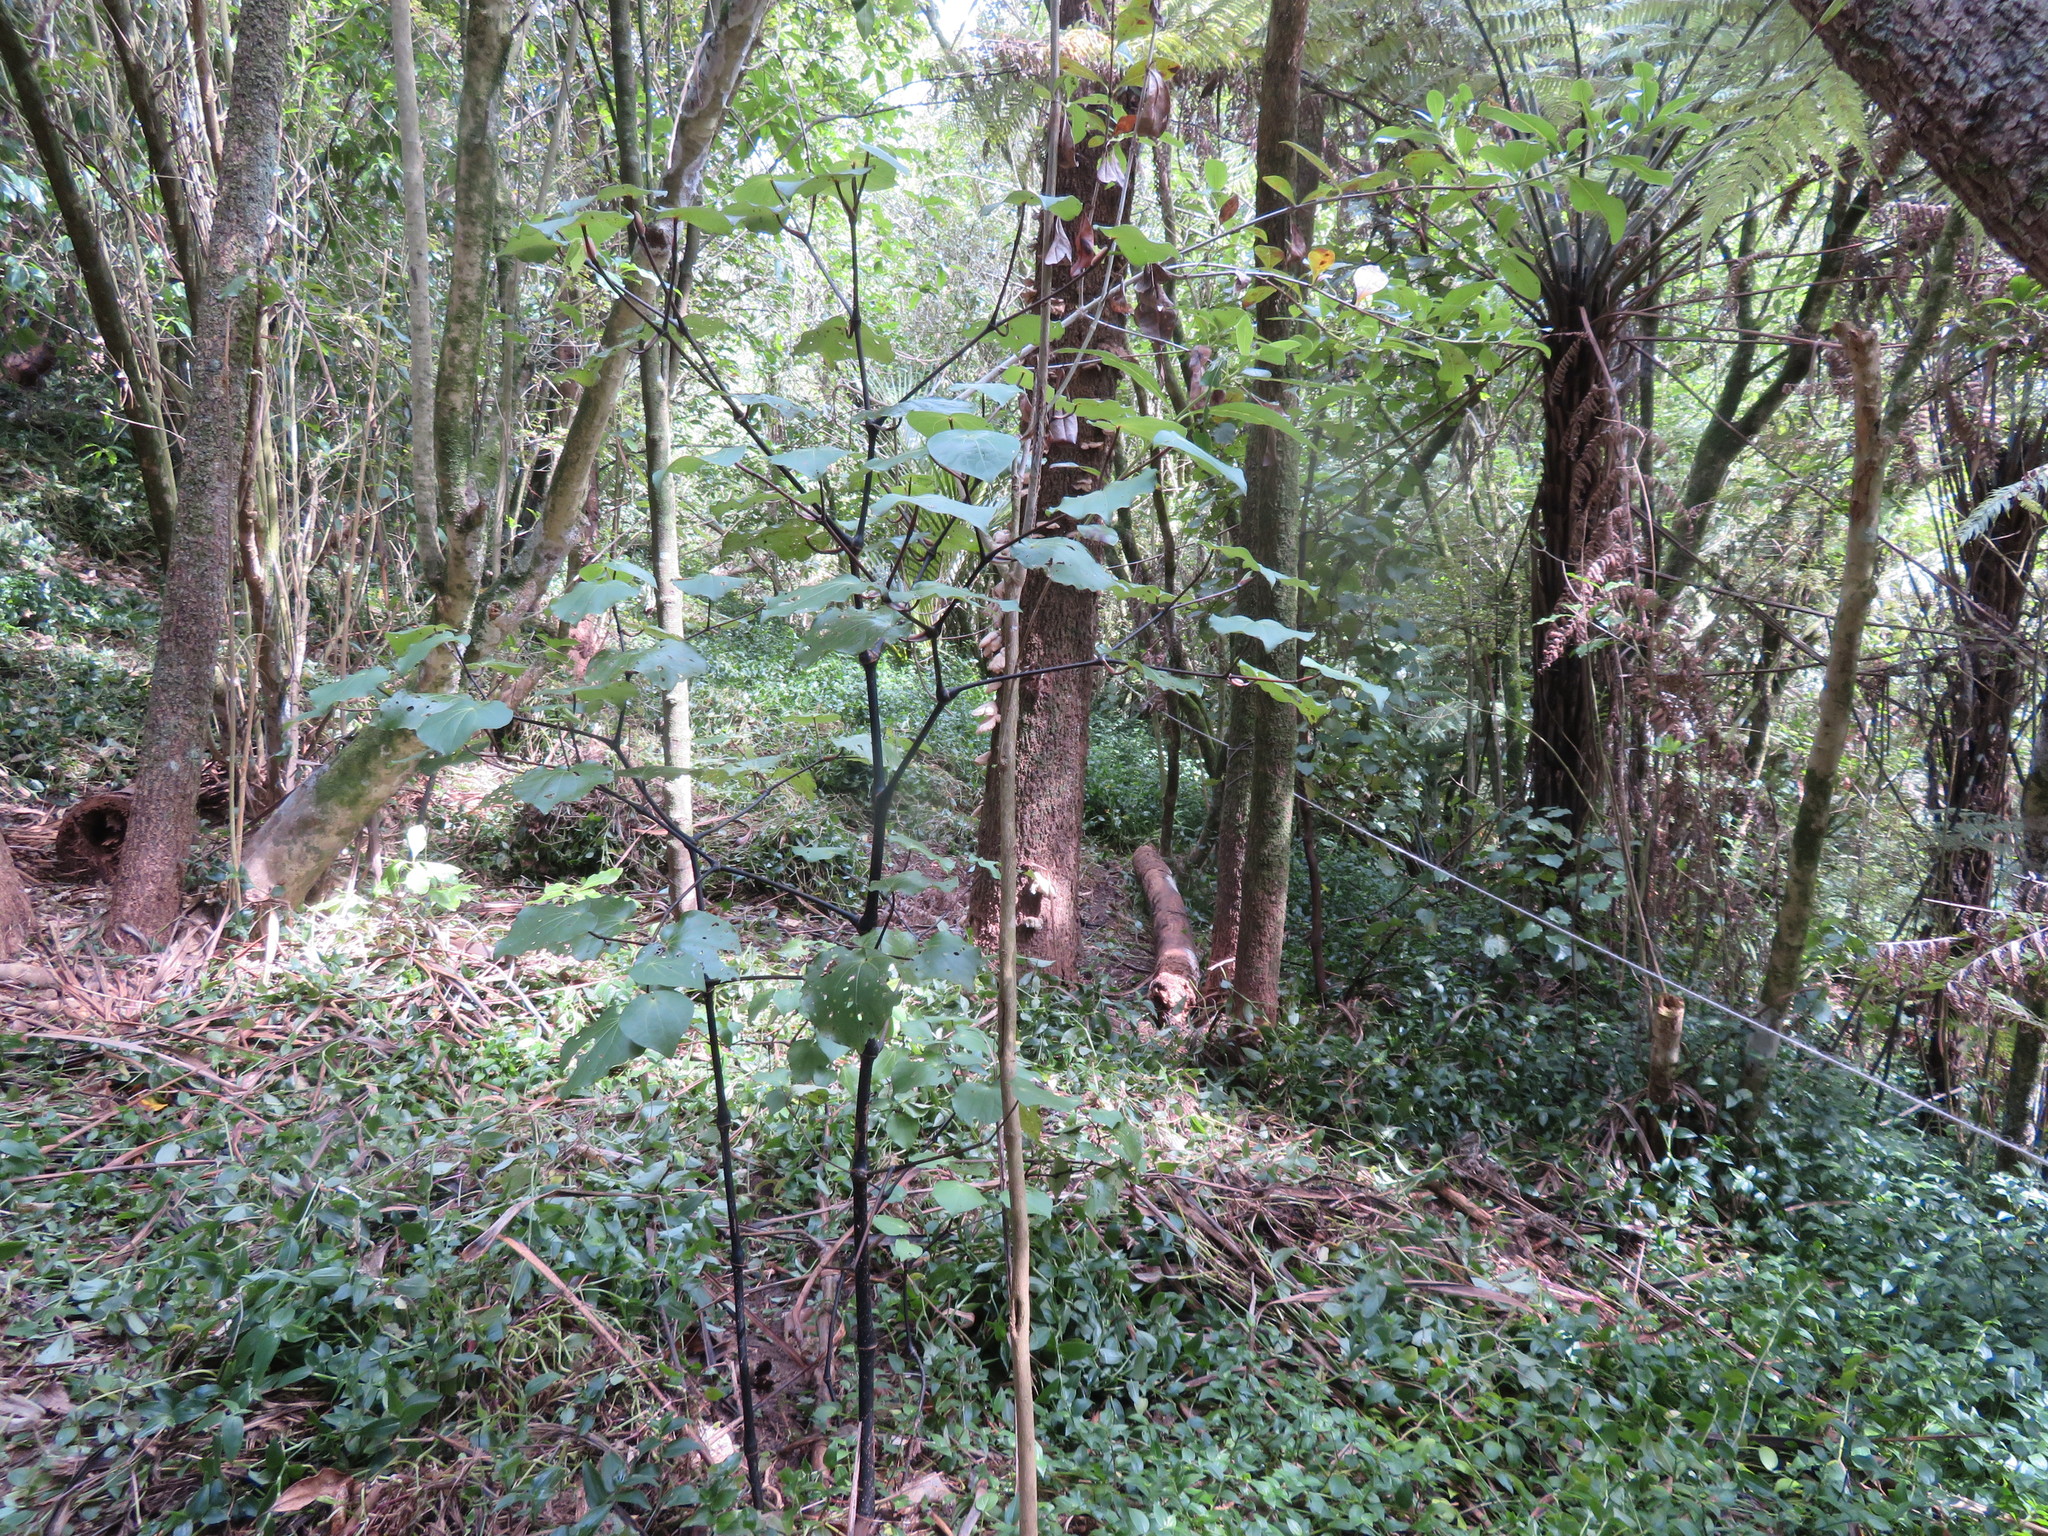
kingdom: Plantae
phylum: Tracheophyta
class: Magnoliopsida
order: Piperales
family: Piperaceae
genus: Macropiper
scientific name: Macropiper excelsum
